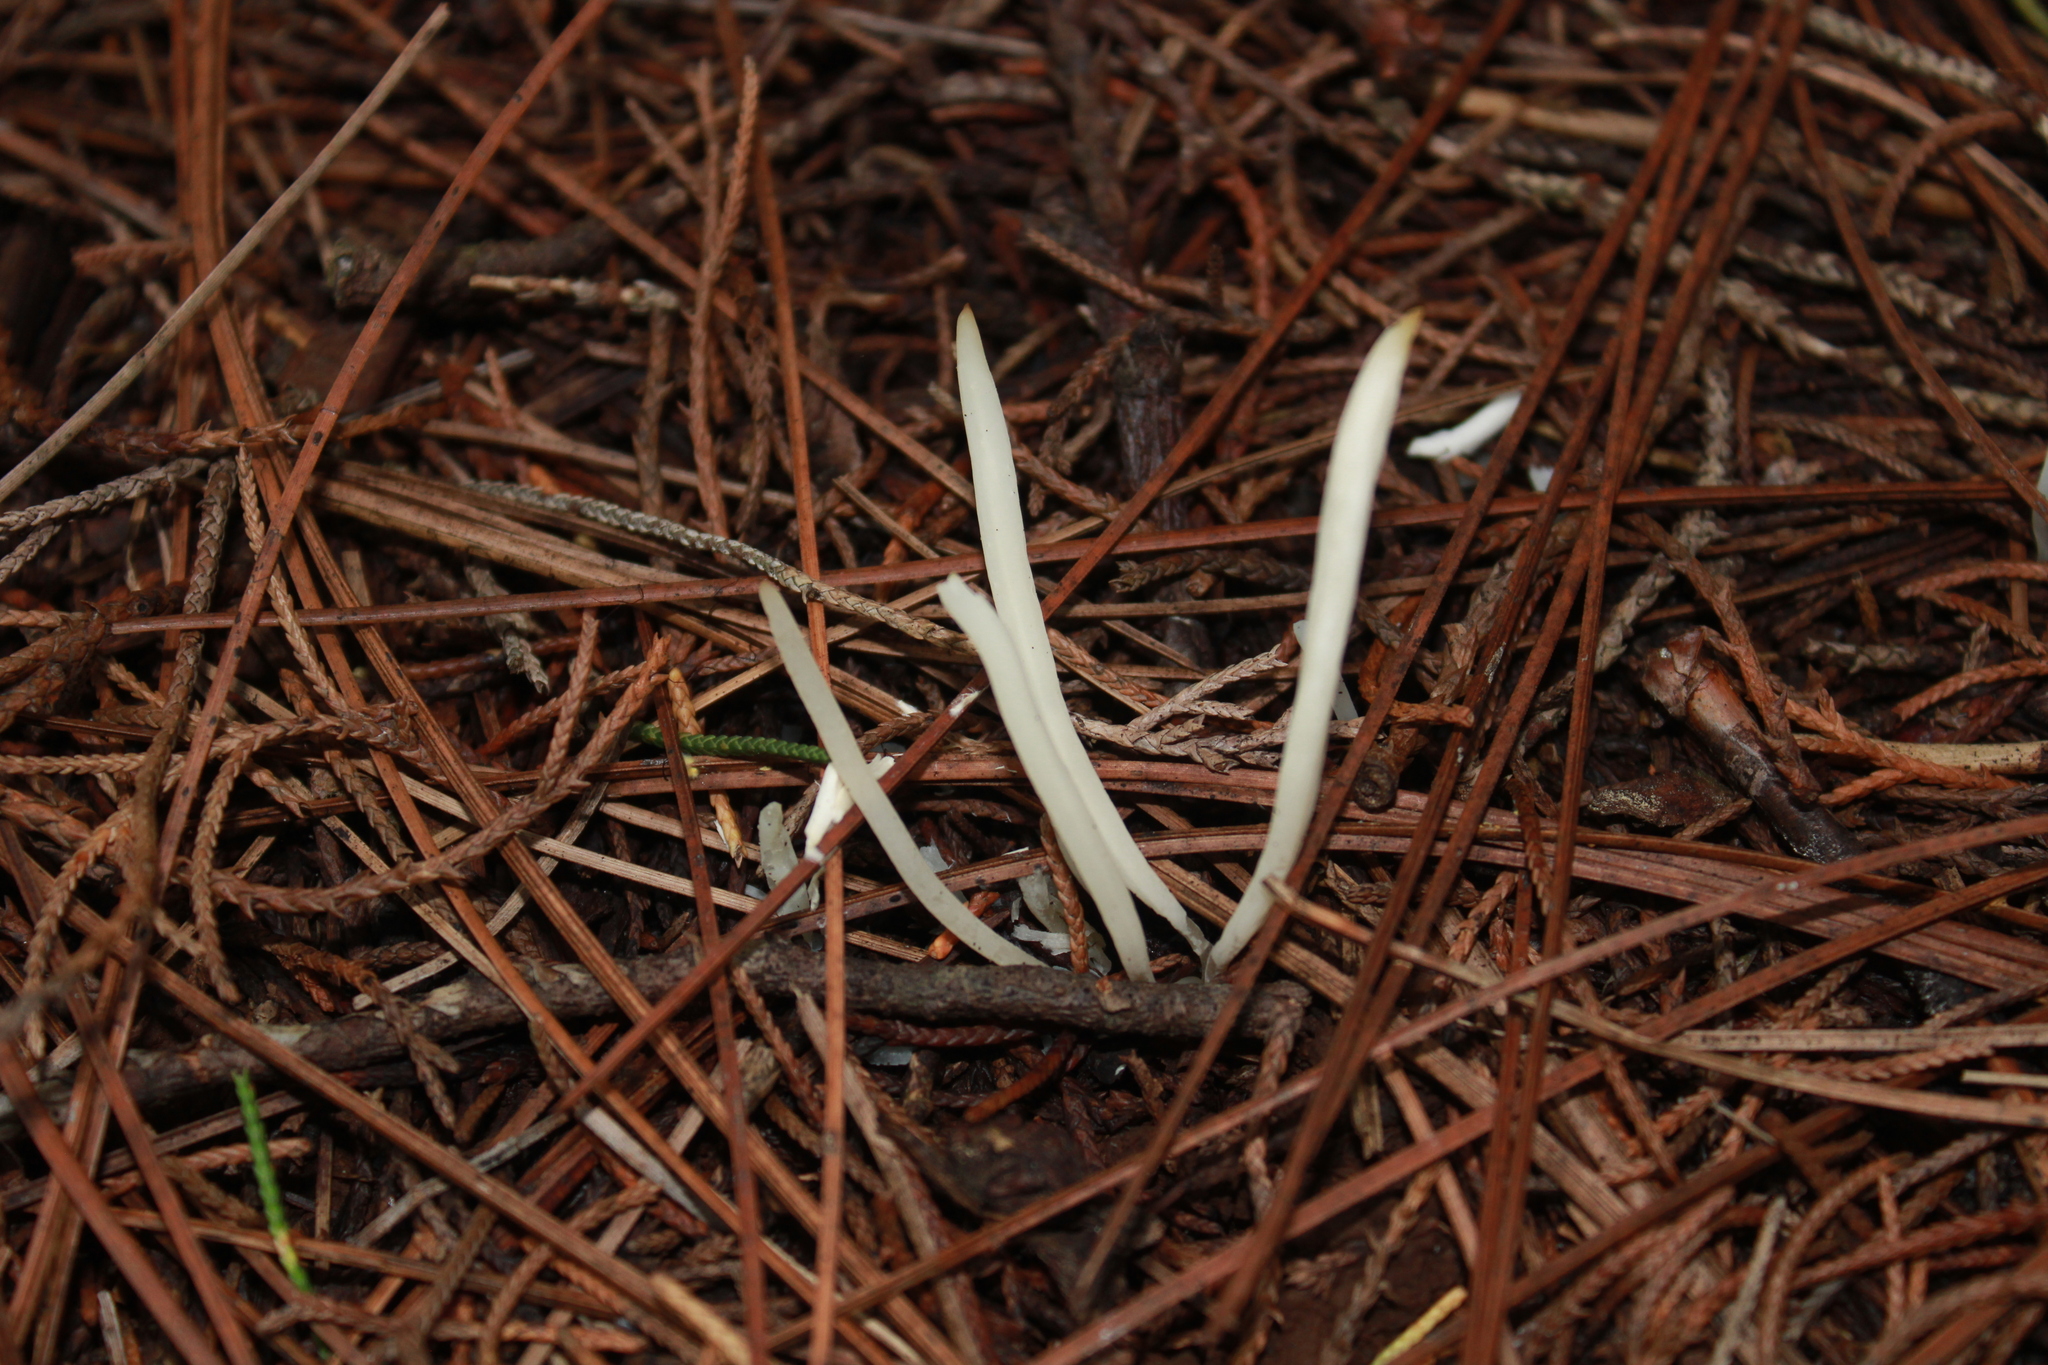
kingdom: Fungi
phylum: Basidiomycota
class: Agaricomycetes
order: Agaricales
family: Clavariaceae
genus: Clavaria
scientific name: Clavaria fragilis
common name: White spindles
